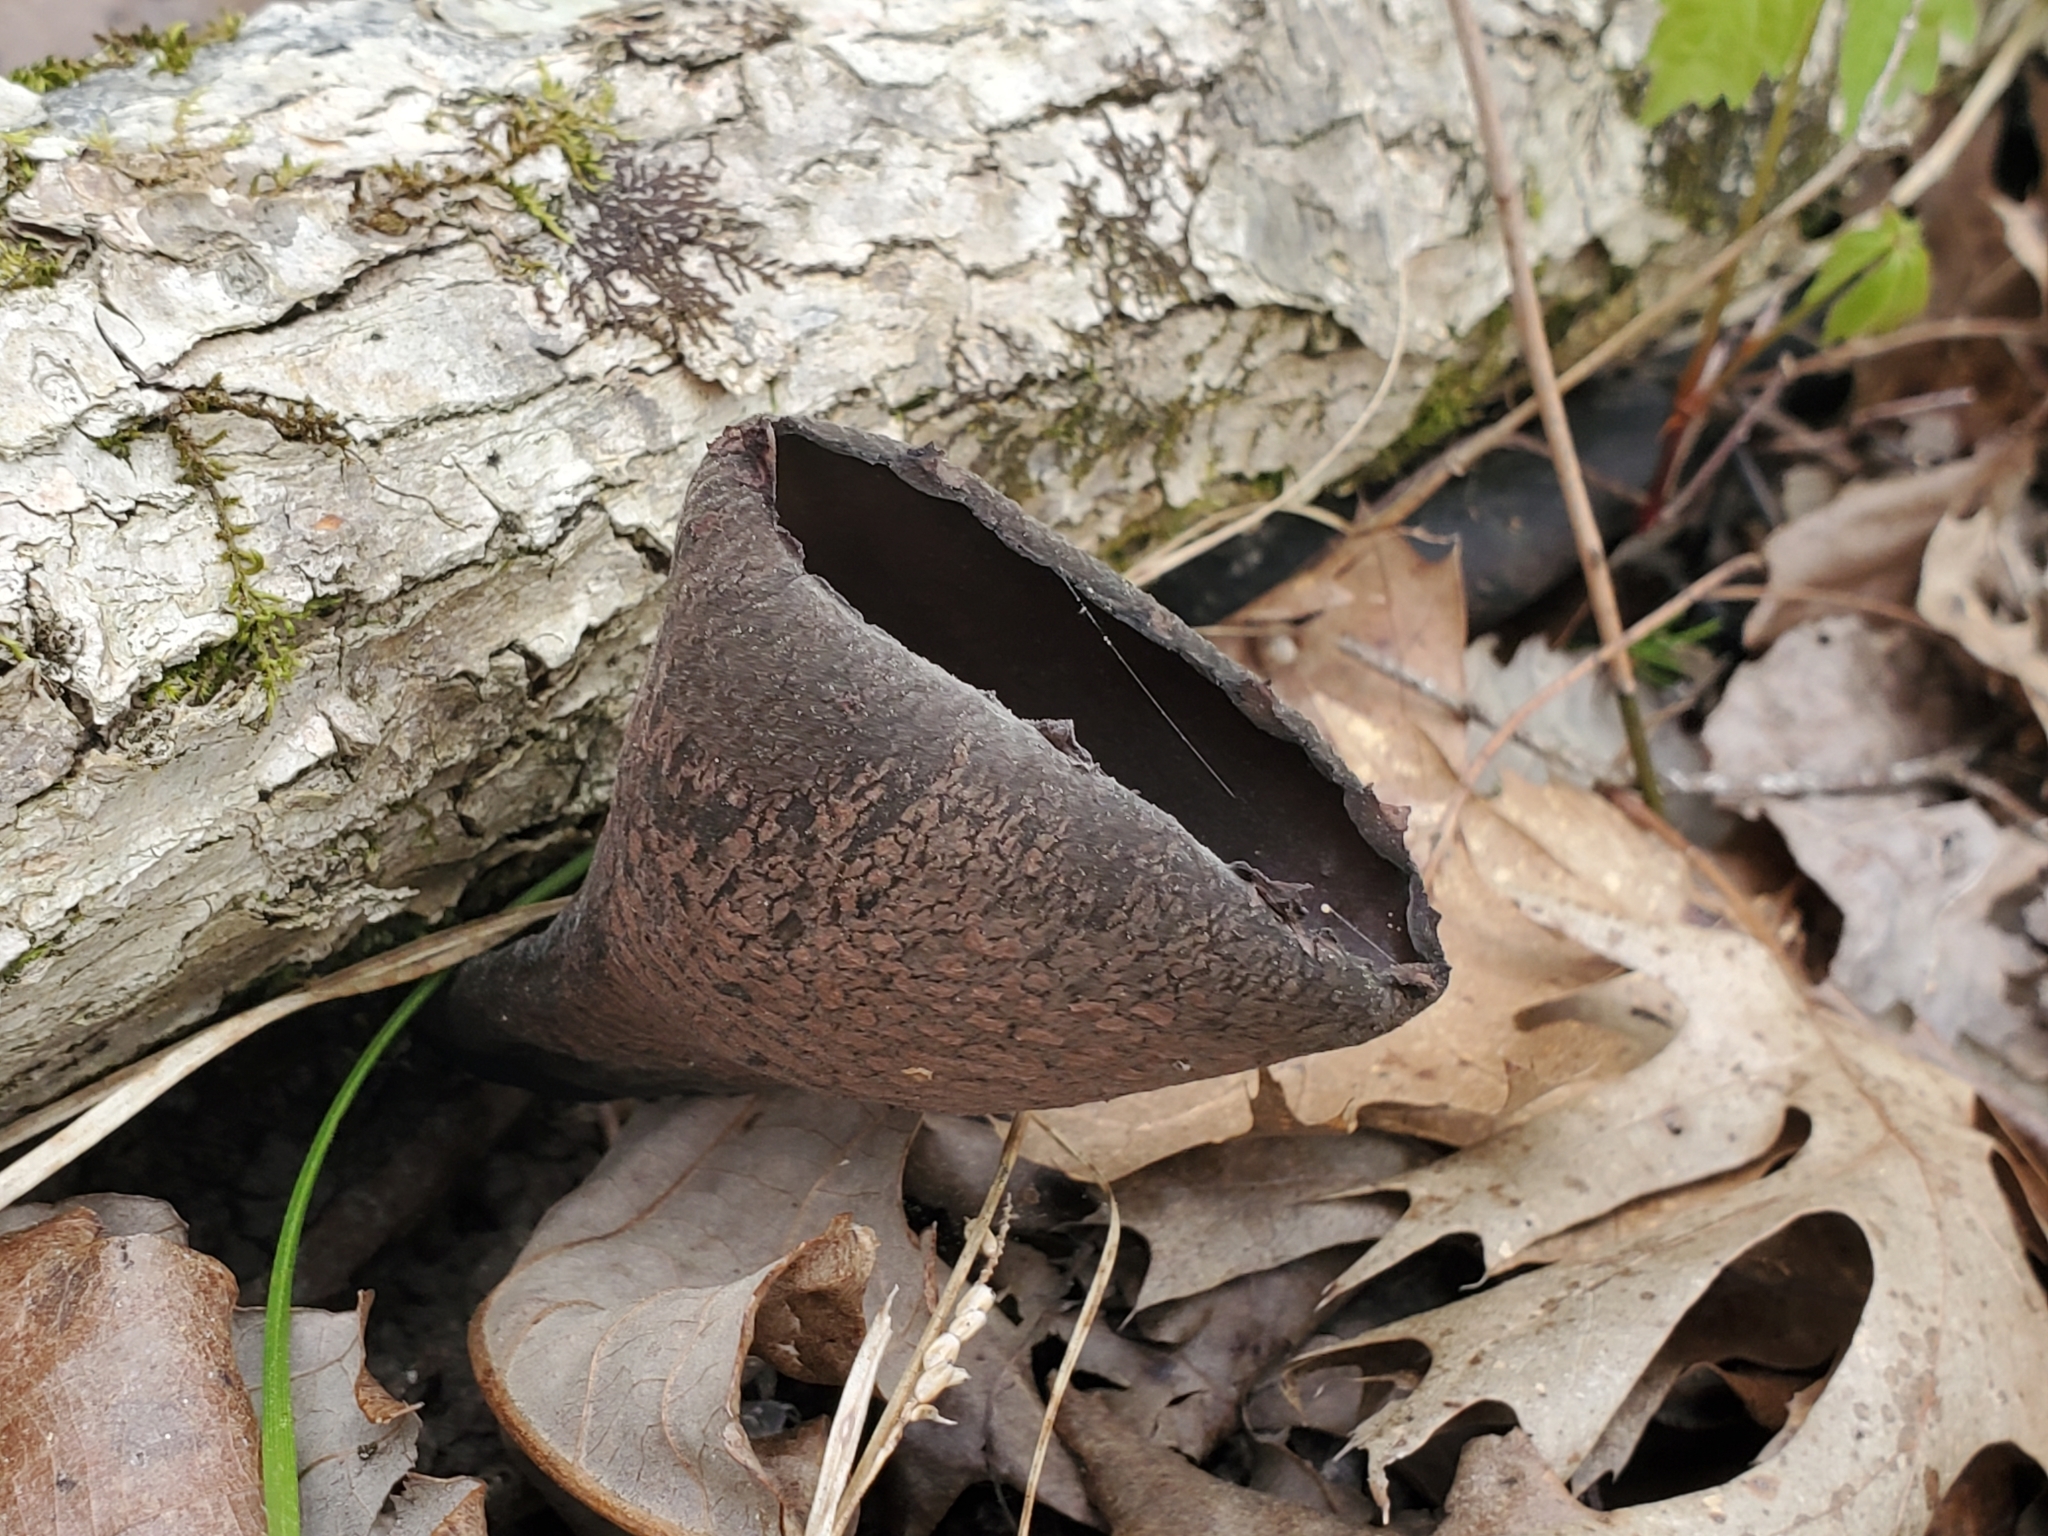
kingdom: Fungi
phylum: Ascomycota
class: Pezizomycetes
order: Pezizales
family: Sarcosomataceae
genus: Urnula
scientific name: Urnula craterium
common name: Devil's urn
